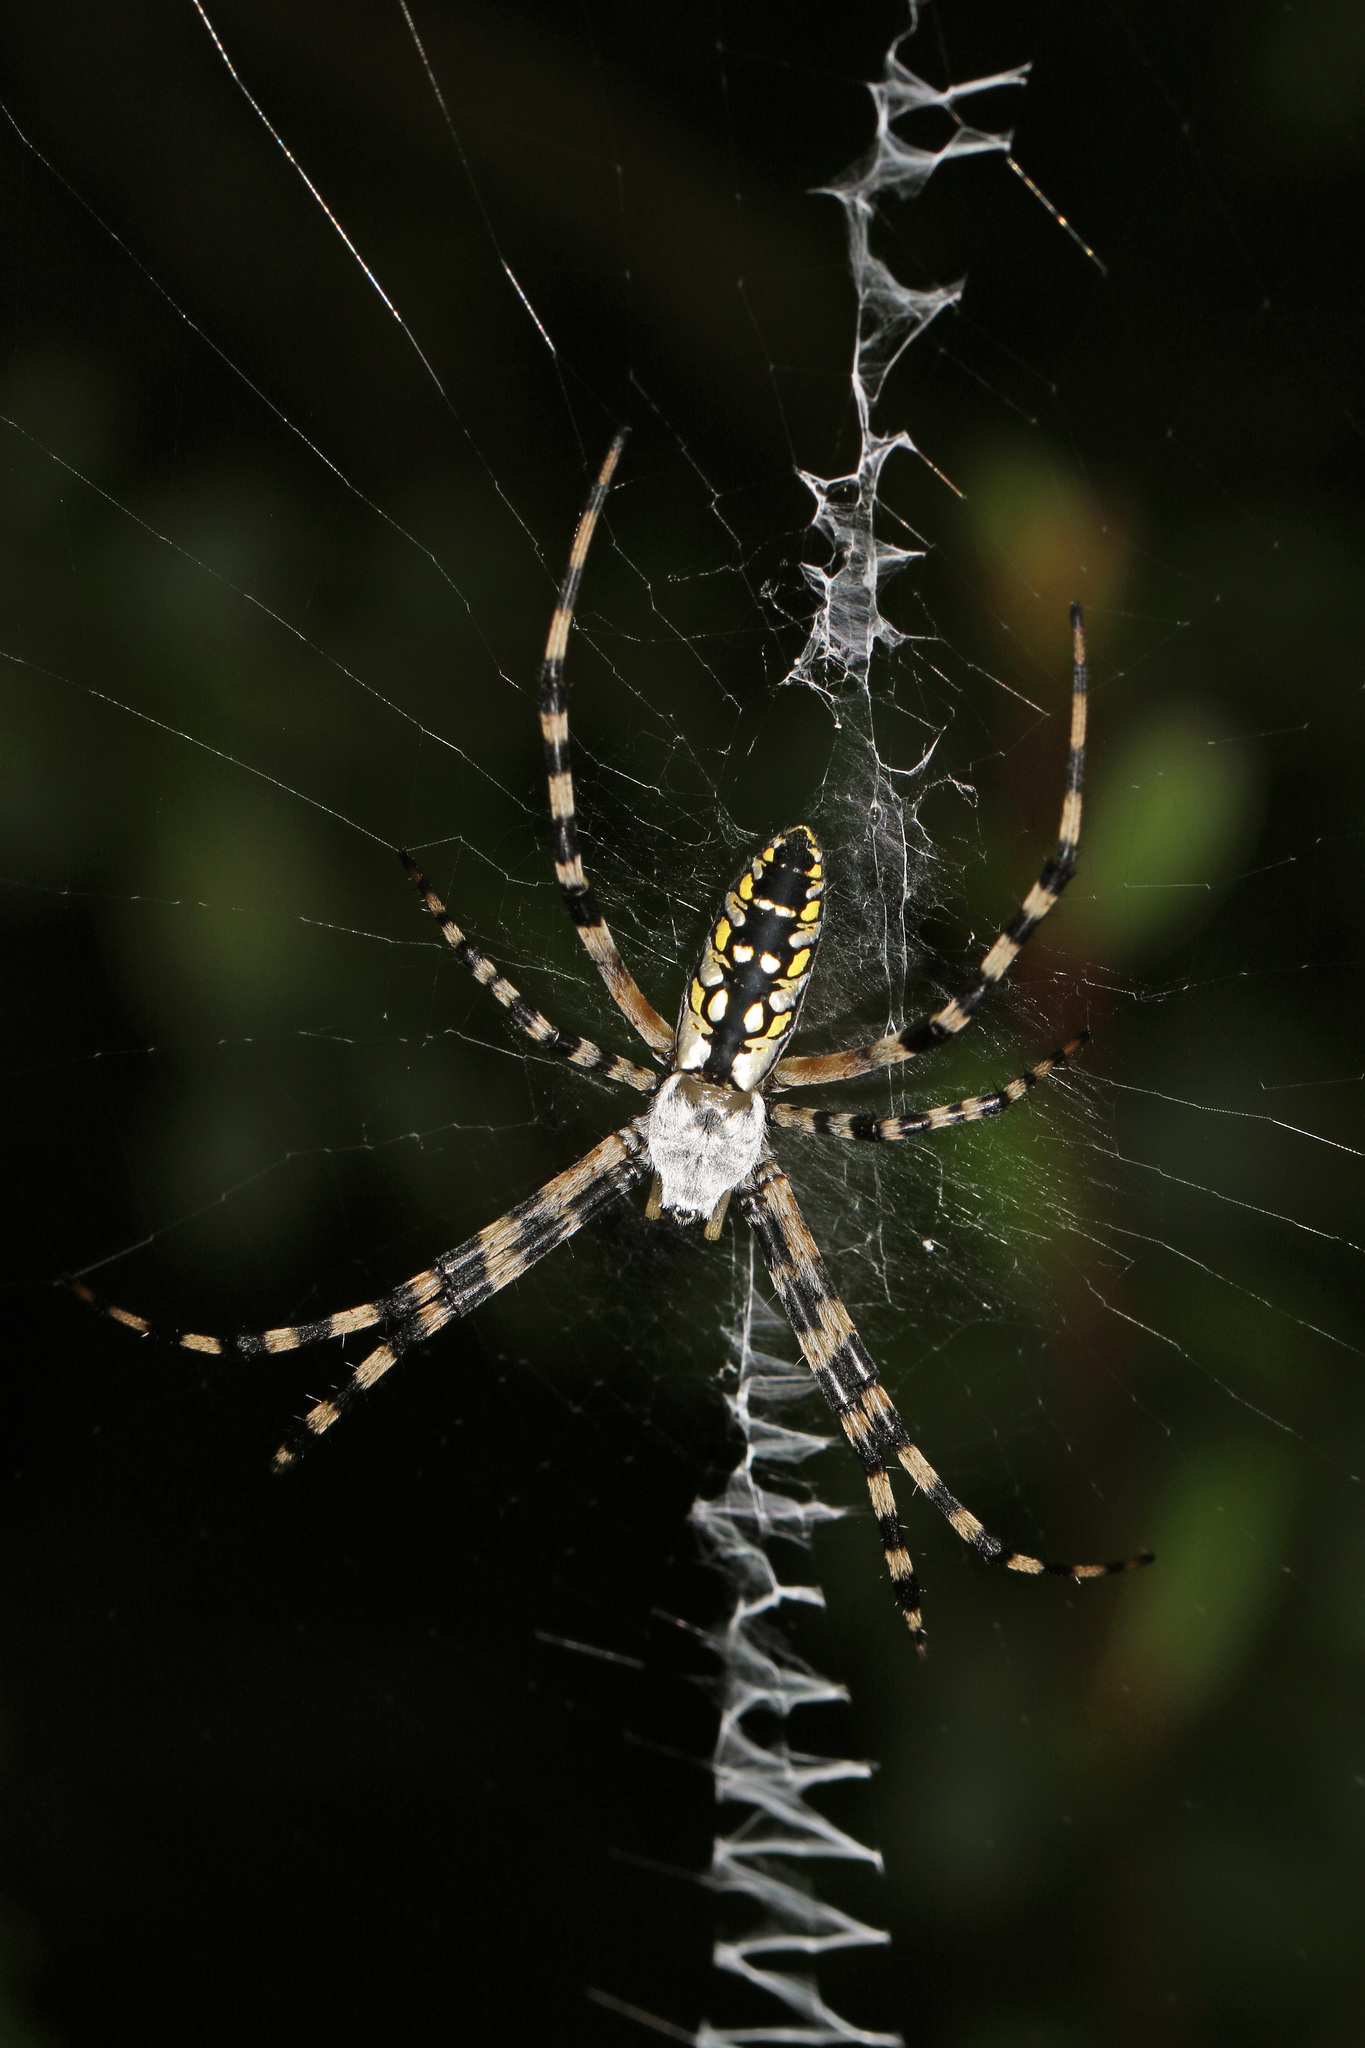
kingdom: Animalia
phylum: Arthropoda
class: Arachnida
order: Araneae
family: Araneidae
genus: Argiope
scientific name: Argiope aurantia
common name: Orb weavers
